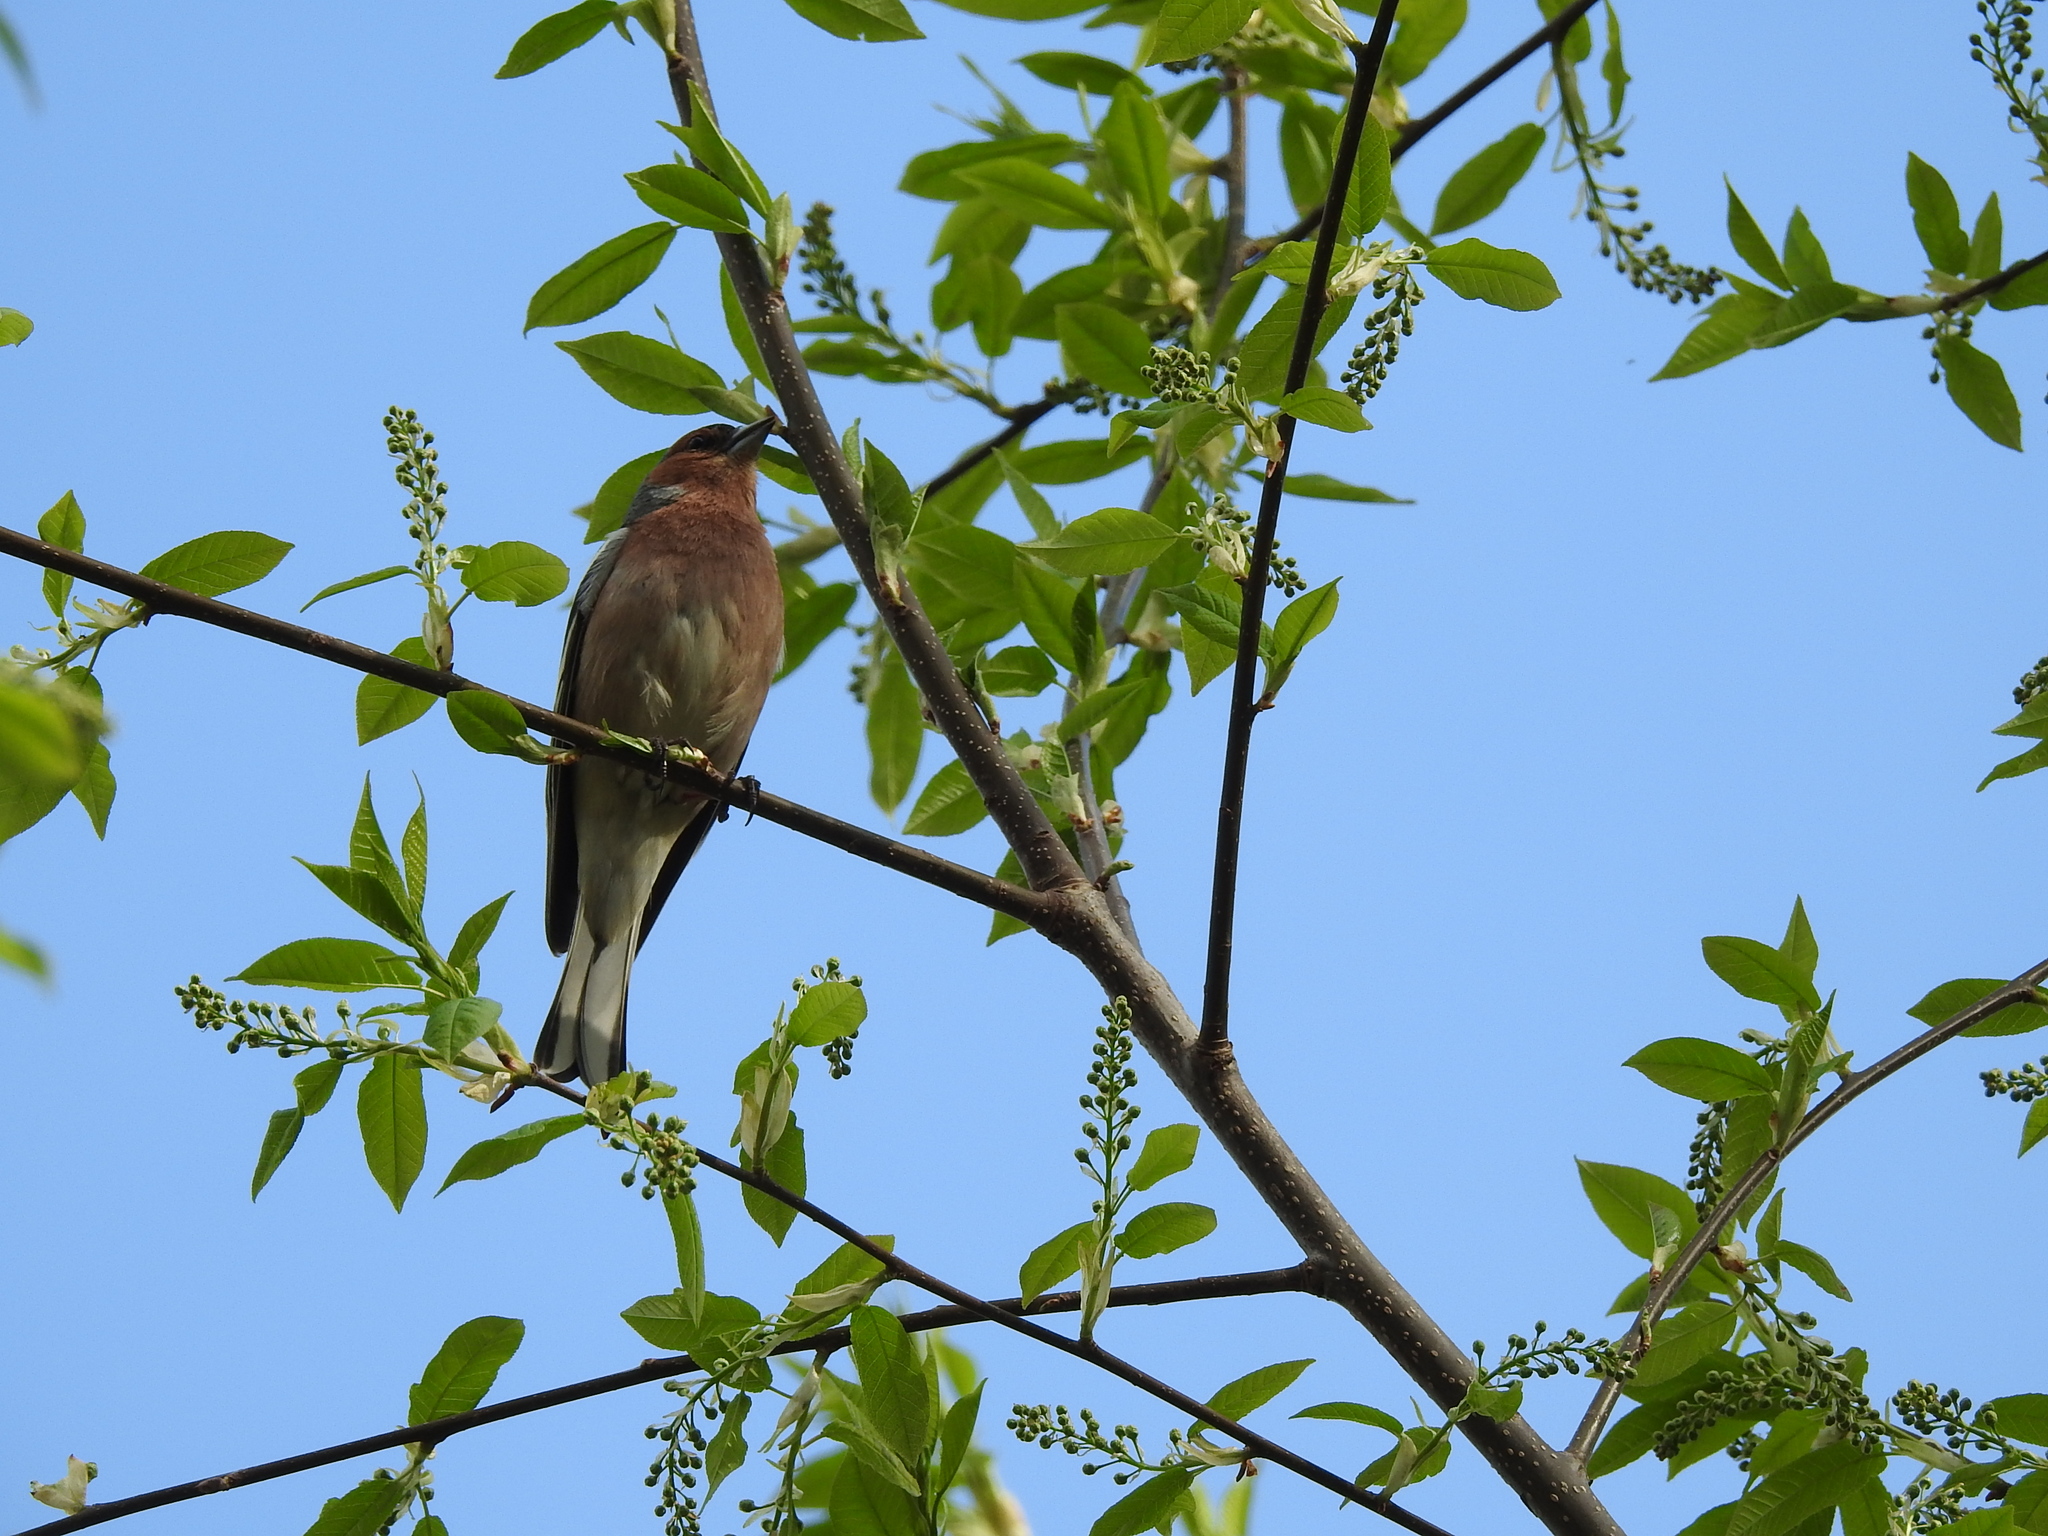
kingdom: Animalia
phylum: Chordata
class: Aves
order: Passeriformes
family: Fringillidae
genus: Fringilla
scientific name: Fringilla coelebs
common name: Common chaffinch
